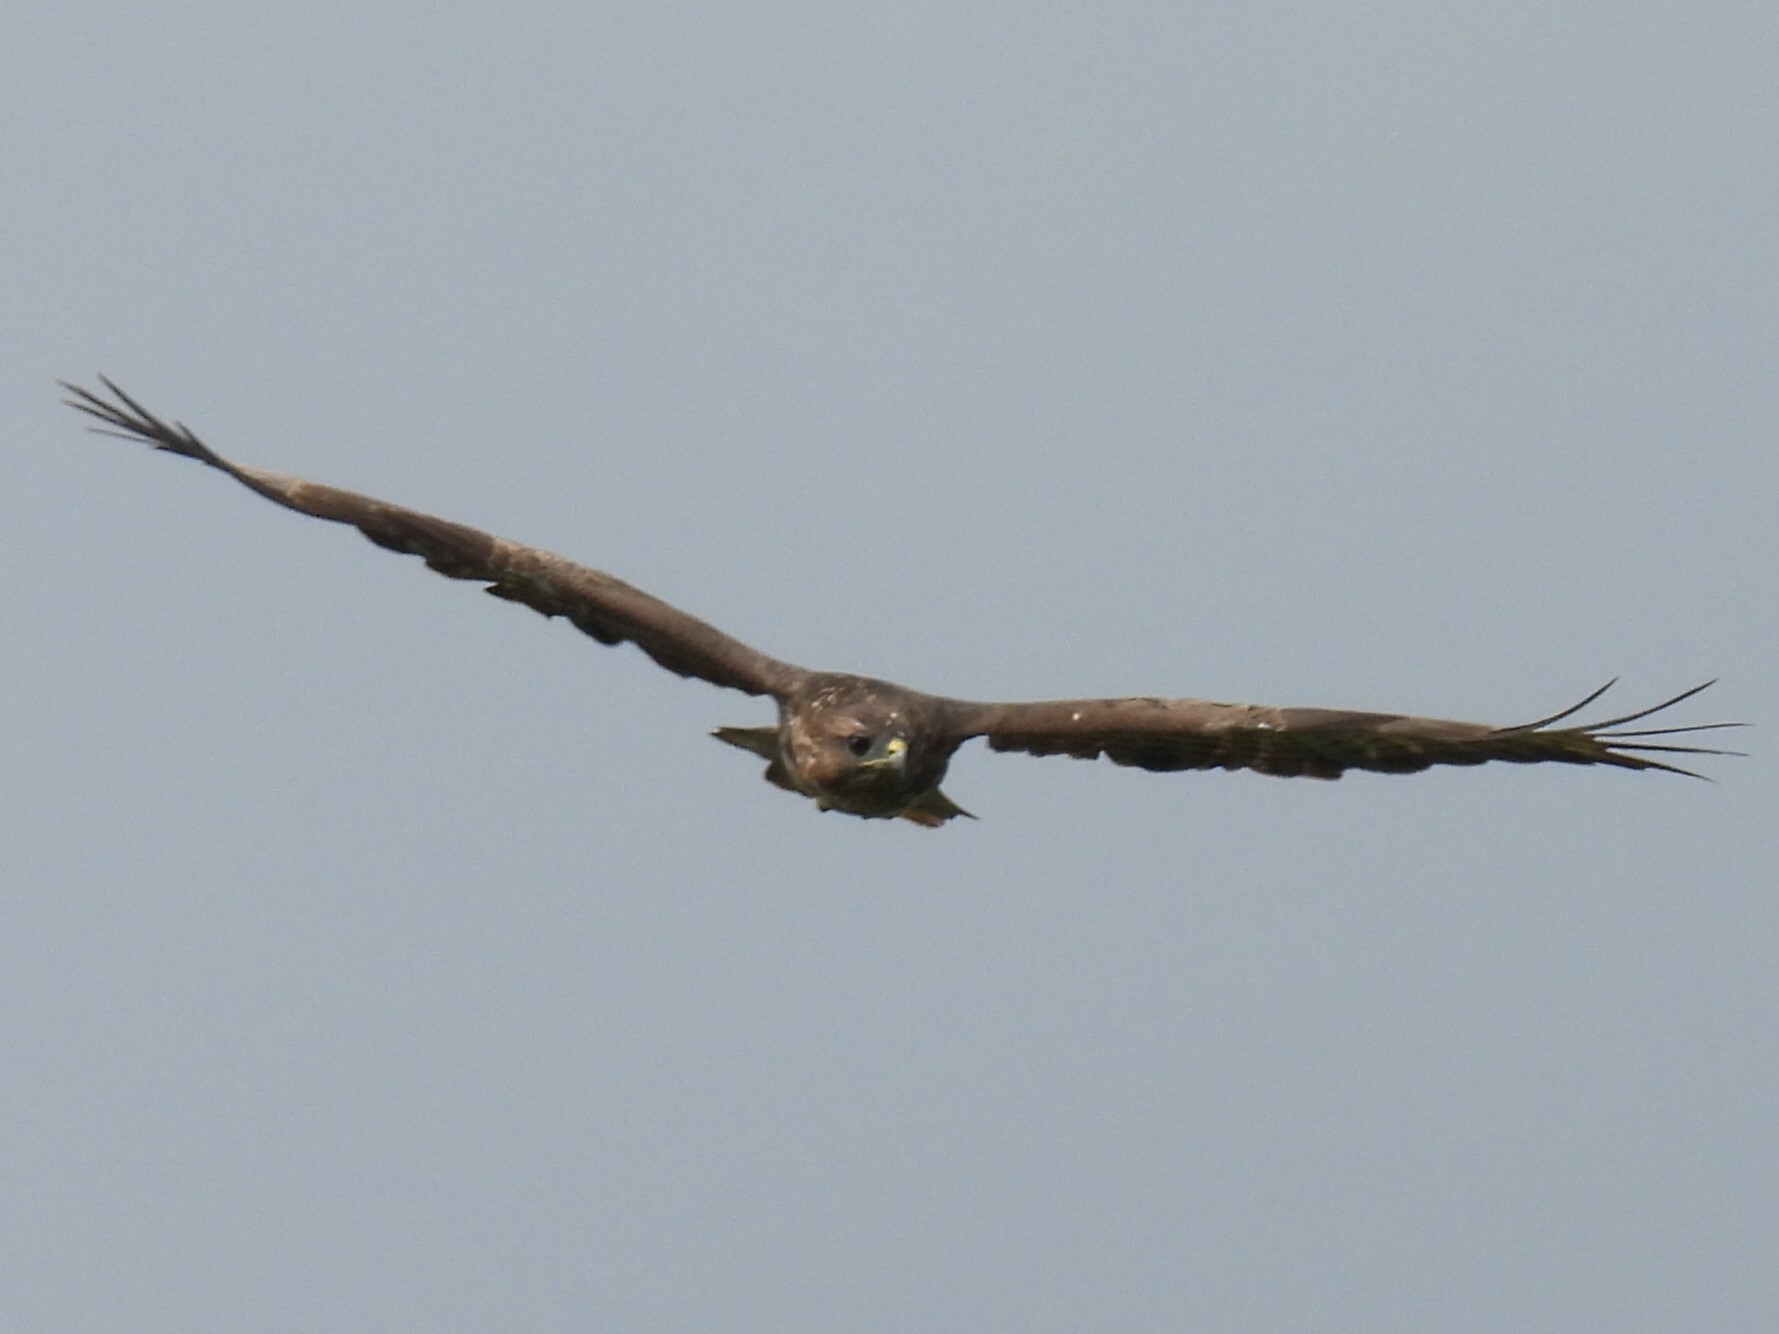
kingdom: Animalia
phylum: Chordata
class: Aves
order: Accipitriformes
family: Accipitridae
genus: Buteo
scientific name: Buteo buteo
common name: Common buzzard
